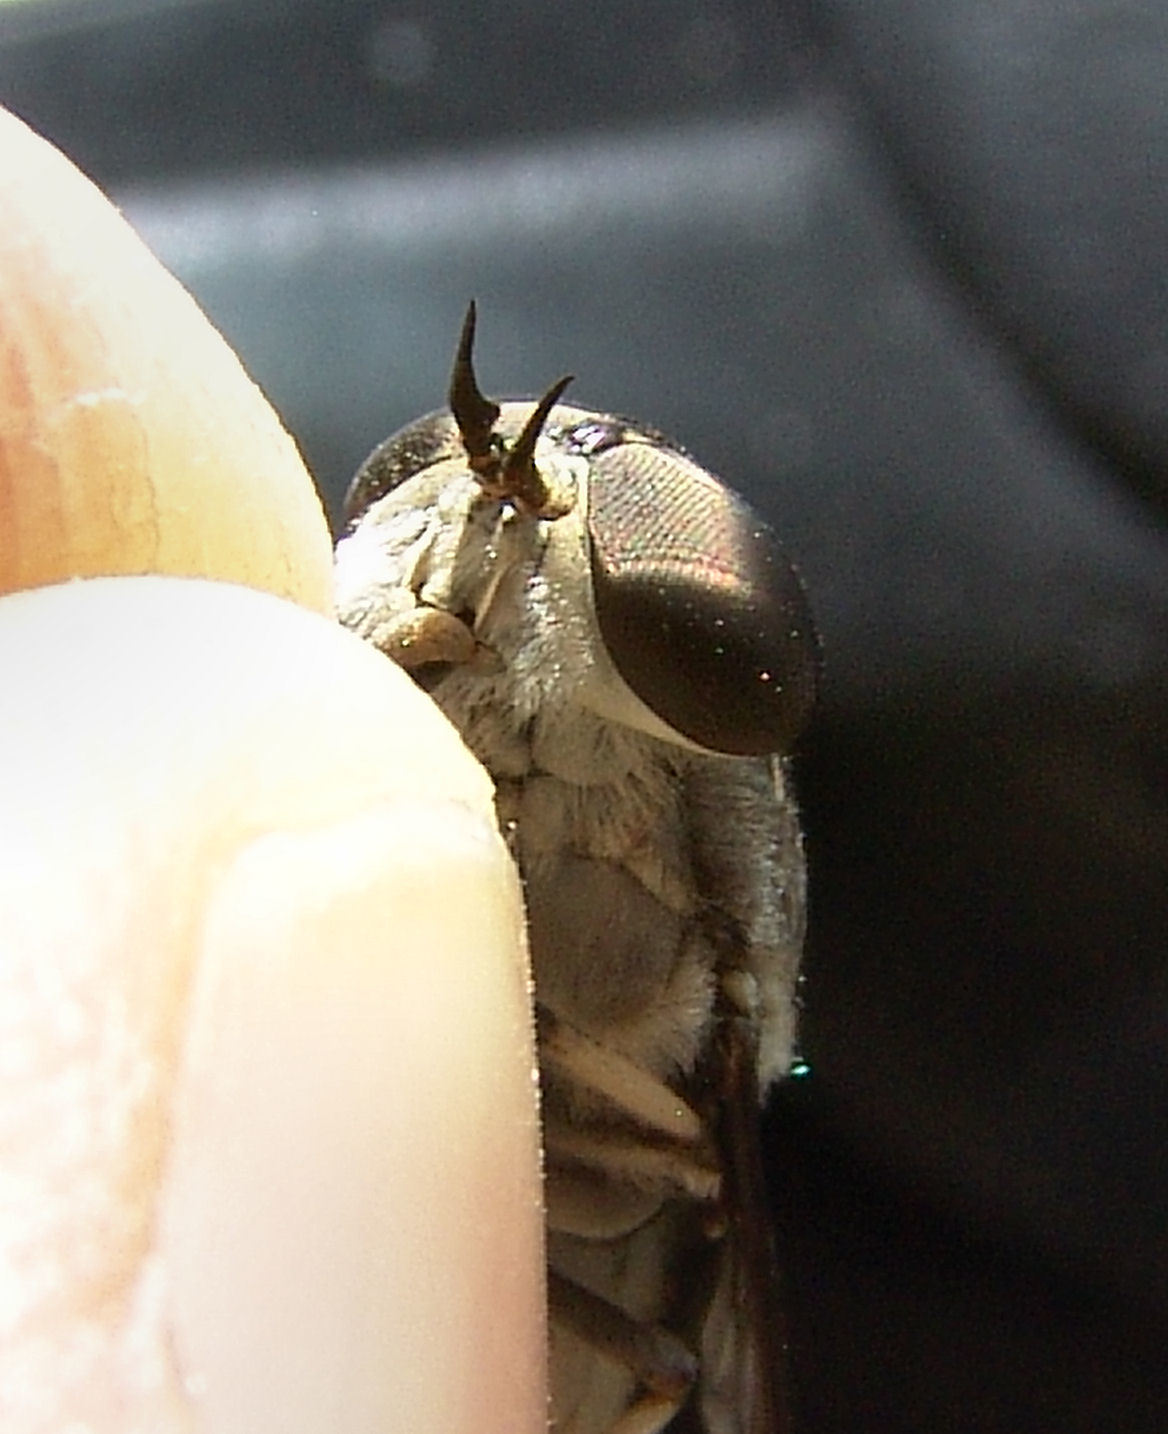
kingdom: Animalia
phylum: Arthropoda
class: Insecta
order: Diptera
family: Tabanidae
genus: Tabanus
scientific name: Tabanus trimaculatus
